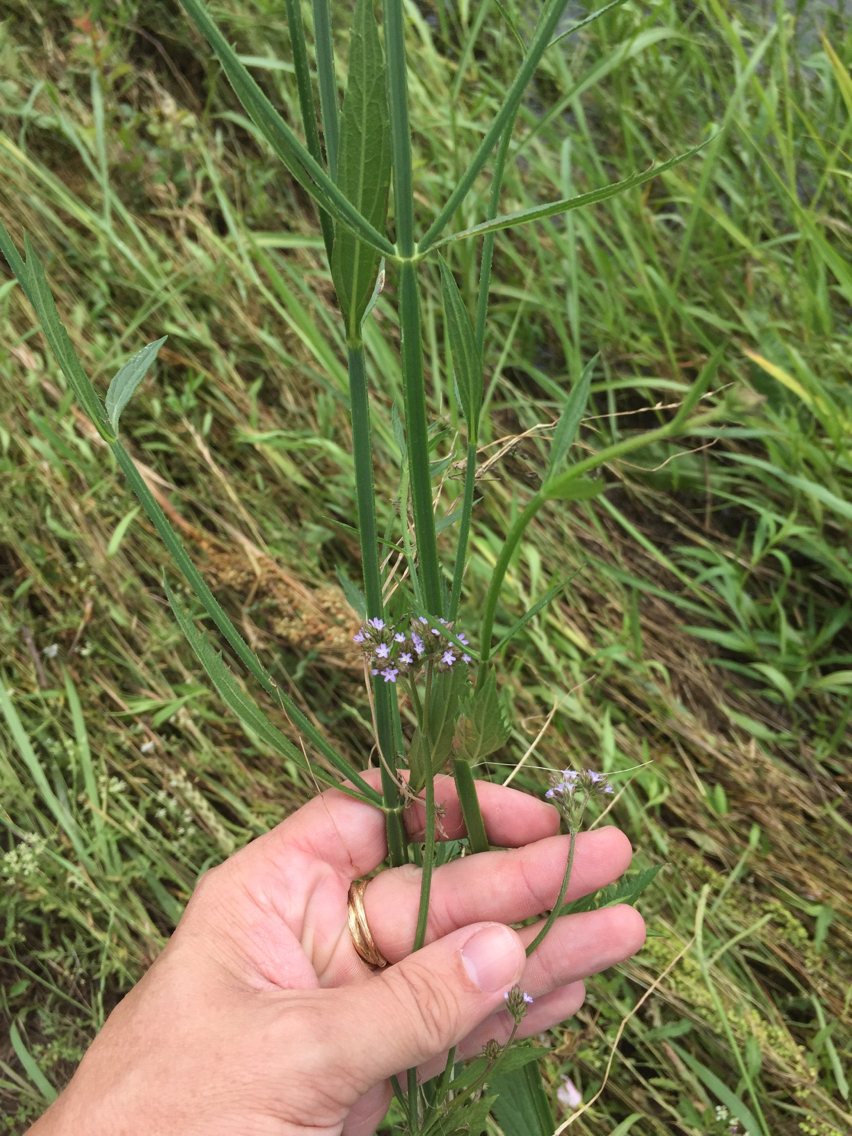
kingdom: Plantae
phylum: Tracheophyta
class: Magnoliopsida
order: Lamiales
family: Verbenaceae
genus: Verbena
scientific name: Verbena brasiliensis
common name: Brazilian vervain
